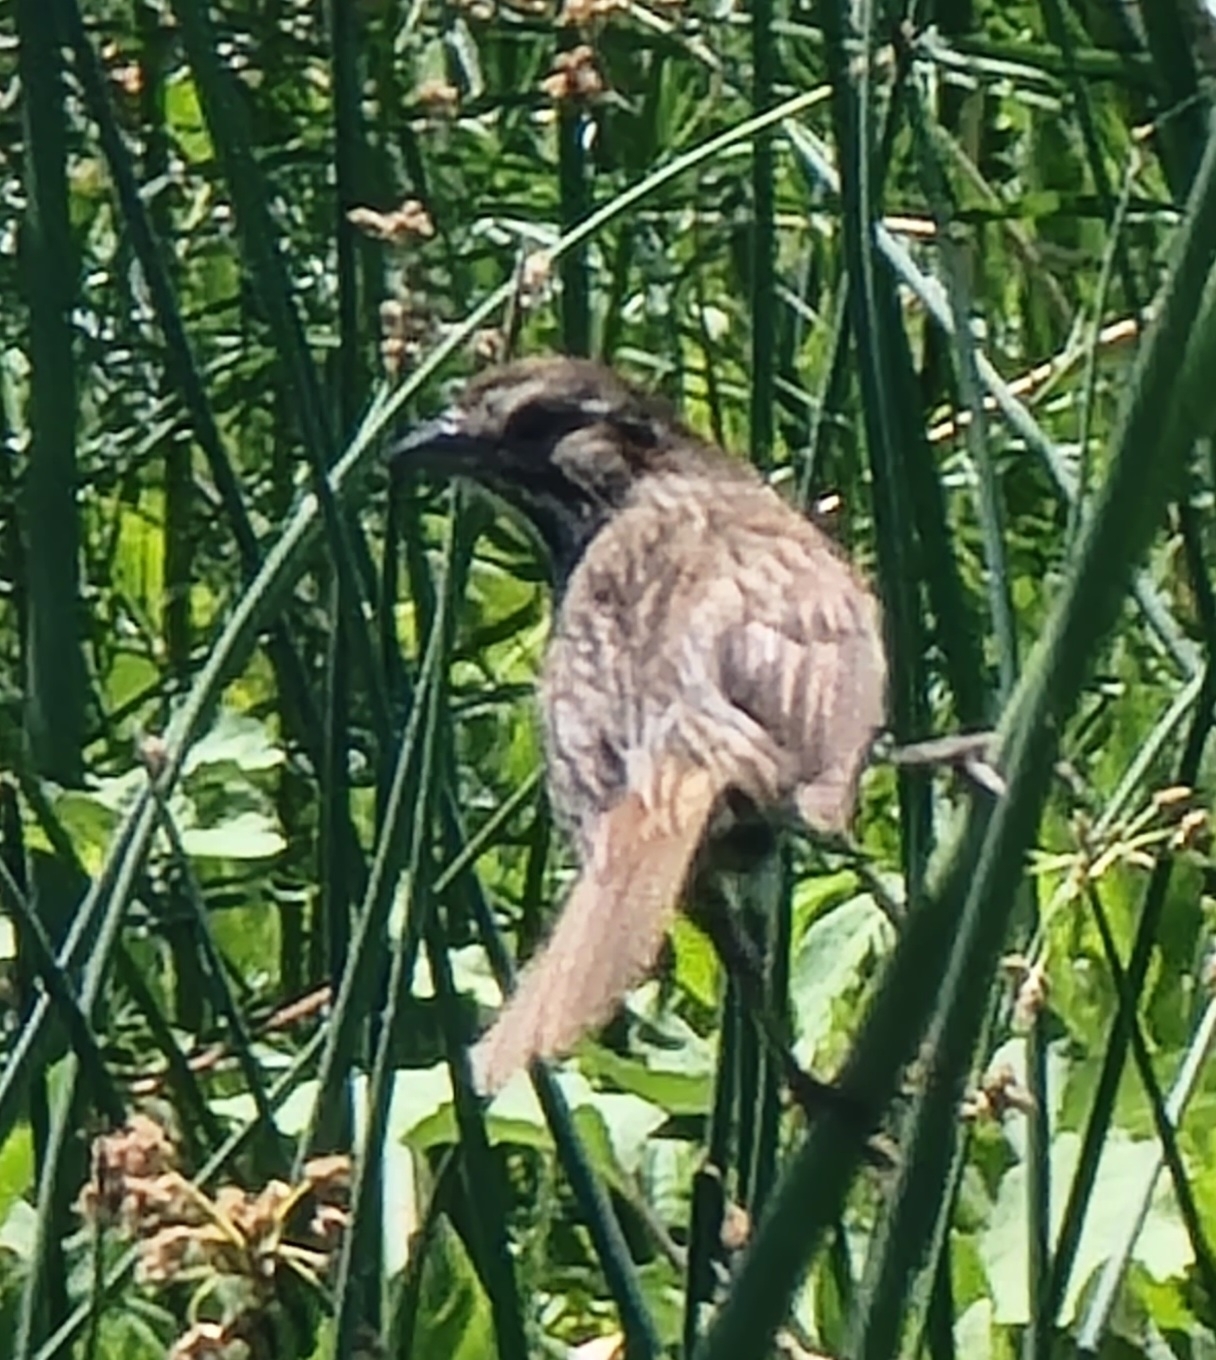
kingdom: Animalia
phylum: Chordata
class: Aves
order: Passeriformes
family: Passerellidae
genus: Melospiza
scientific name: Melospiza melodia
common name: Song sparrow
